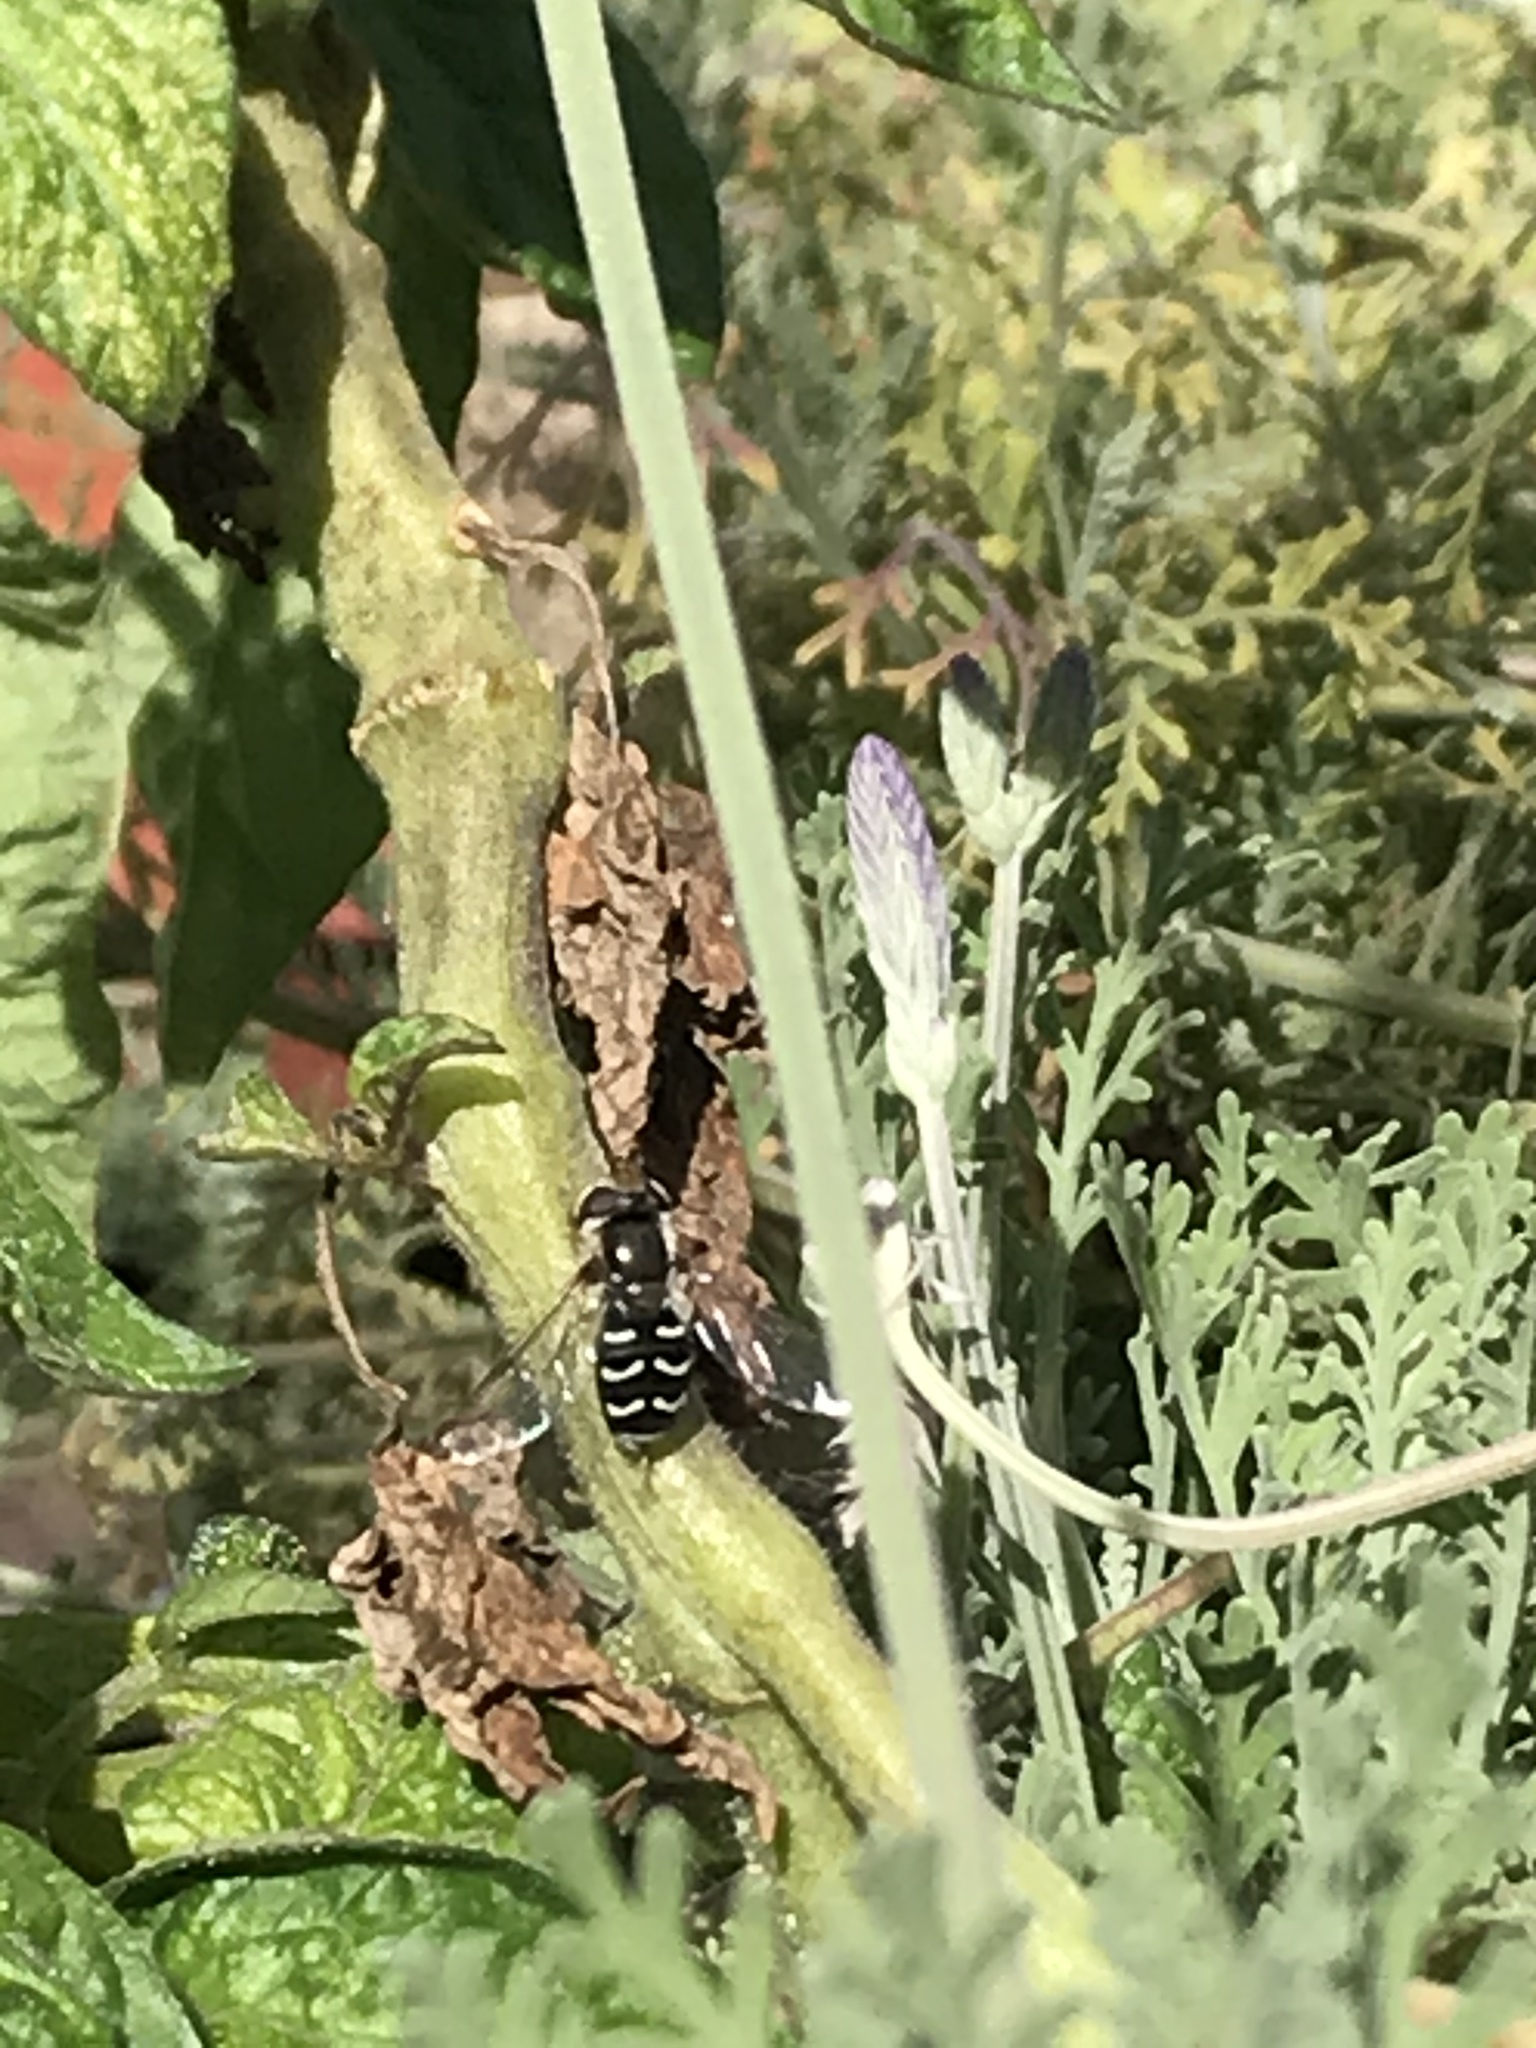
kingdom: Animalia
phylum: Arthropoda
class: Insecta
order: Diptera
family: Syrphidae
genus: Scaeva
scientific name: Scaeva affinis
